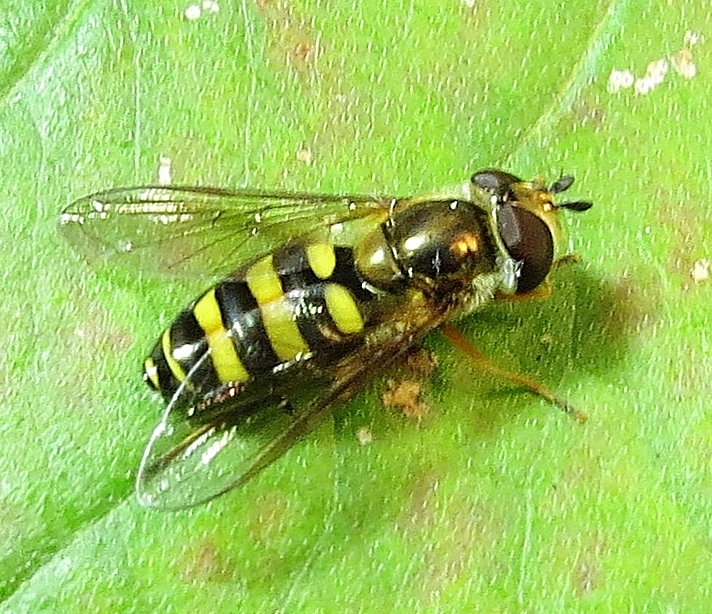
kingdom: Animalia
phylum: Arthropoda
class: Insecta
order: Diptera
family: Syrphidae
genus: Eupeodes
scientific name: Eupeodes
